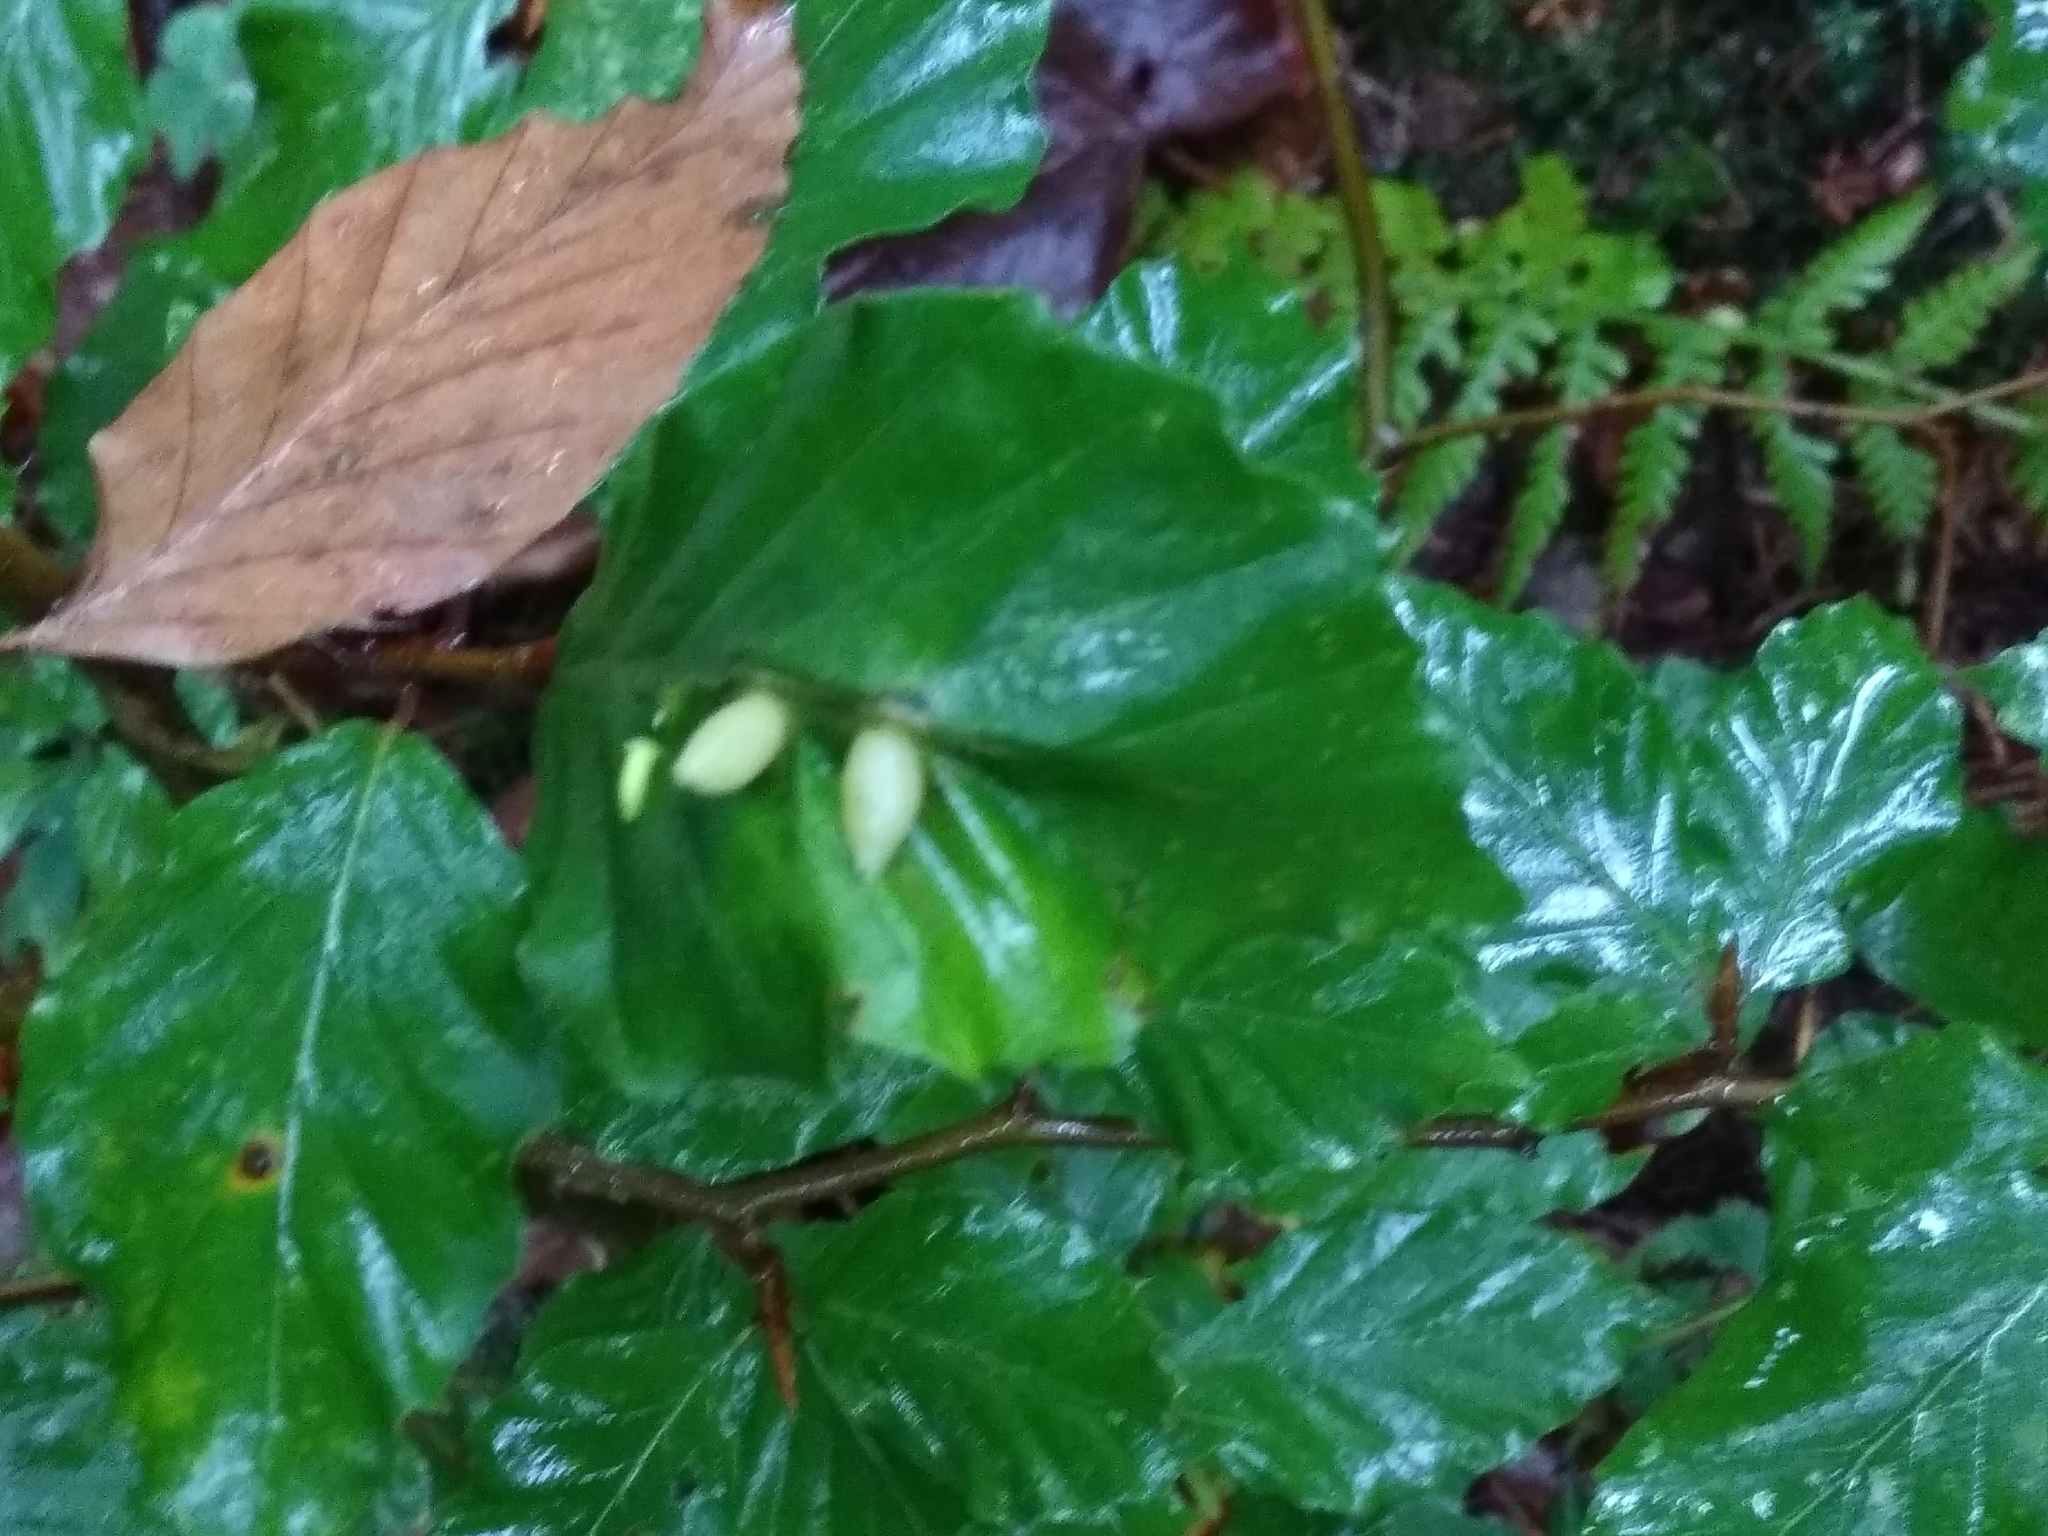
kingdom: Animalia
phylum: Arthropoda
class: Insecta
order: Diptera
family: Cecidomyiidae
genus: Mikiola
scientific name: Mikiola fagi
